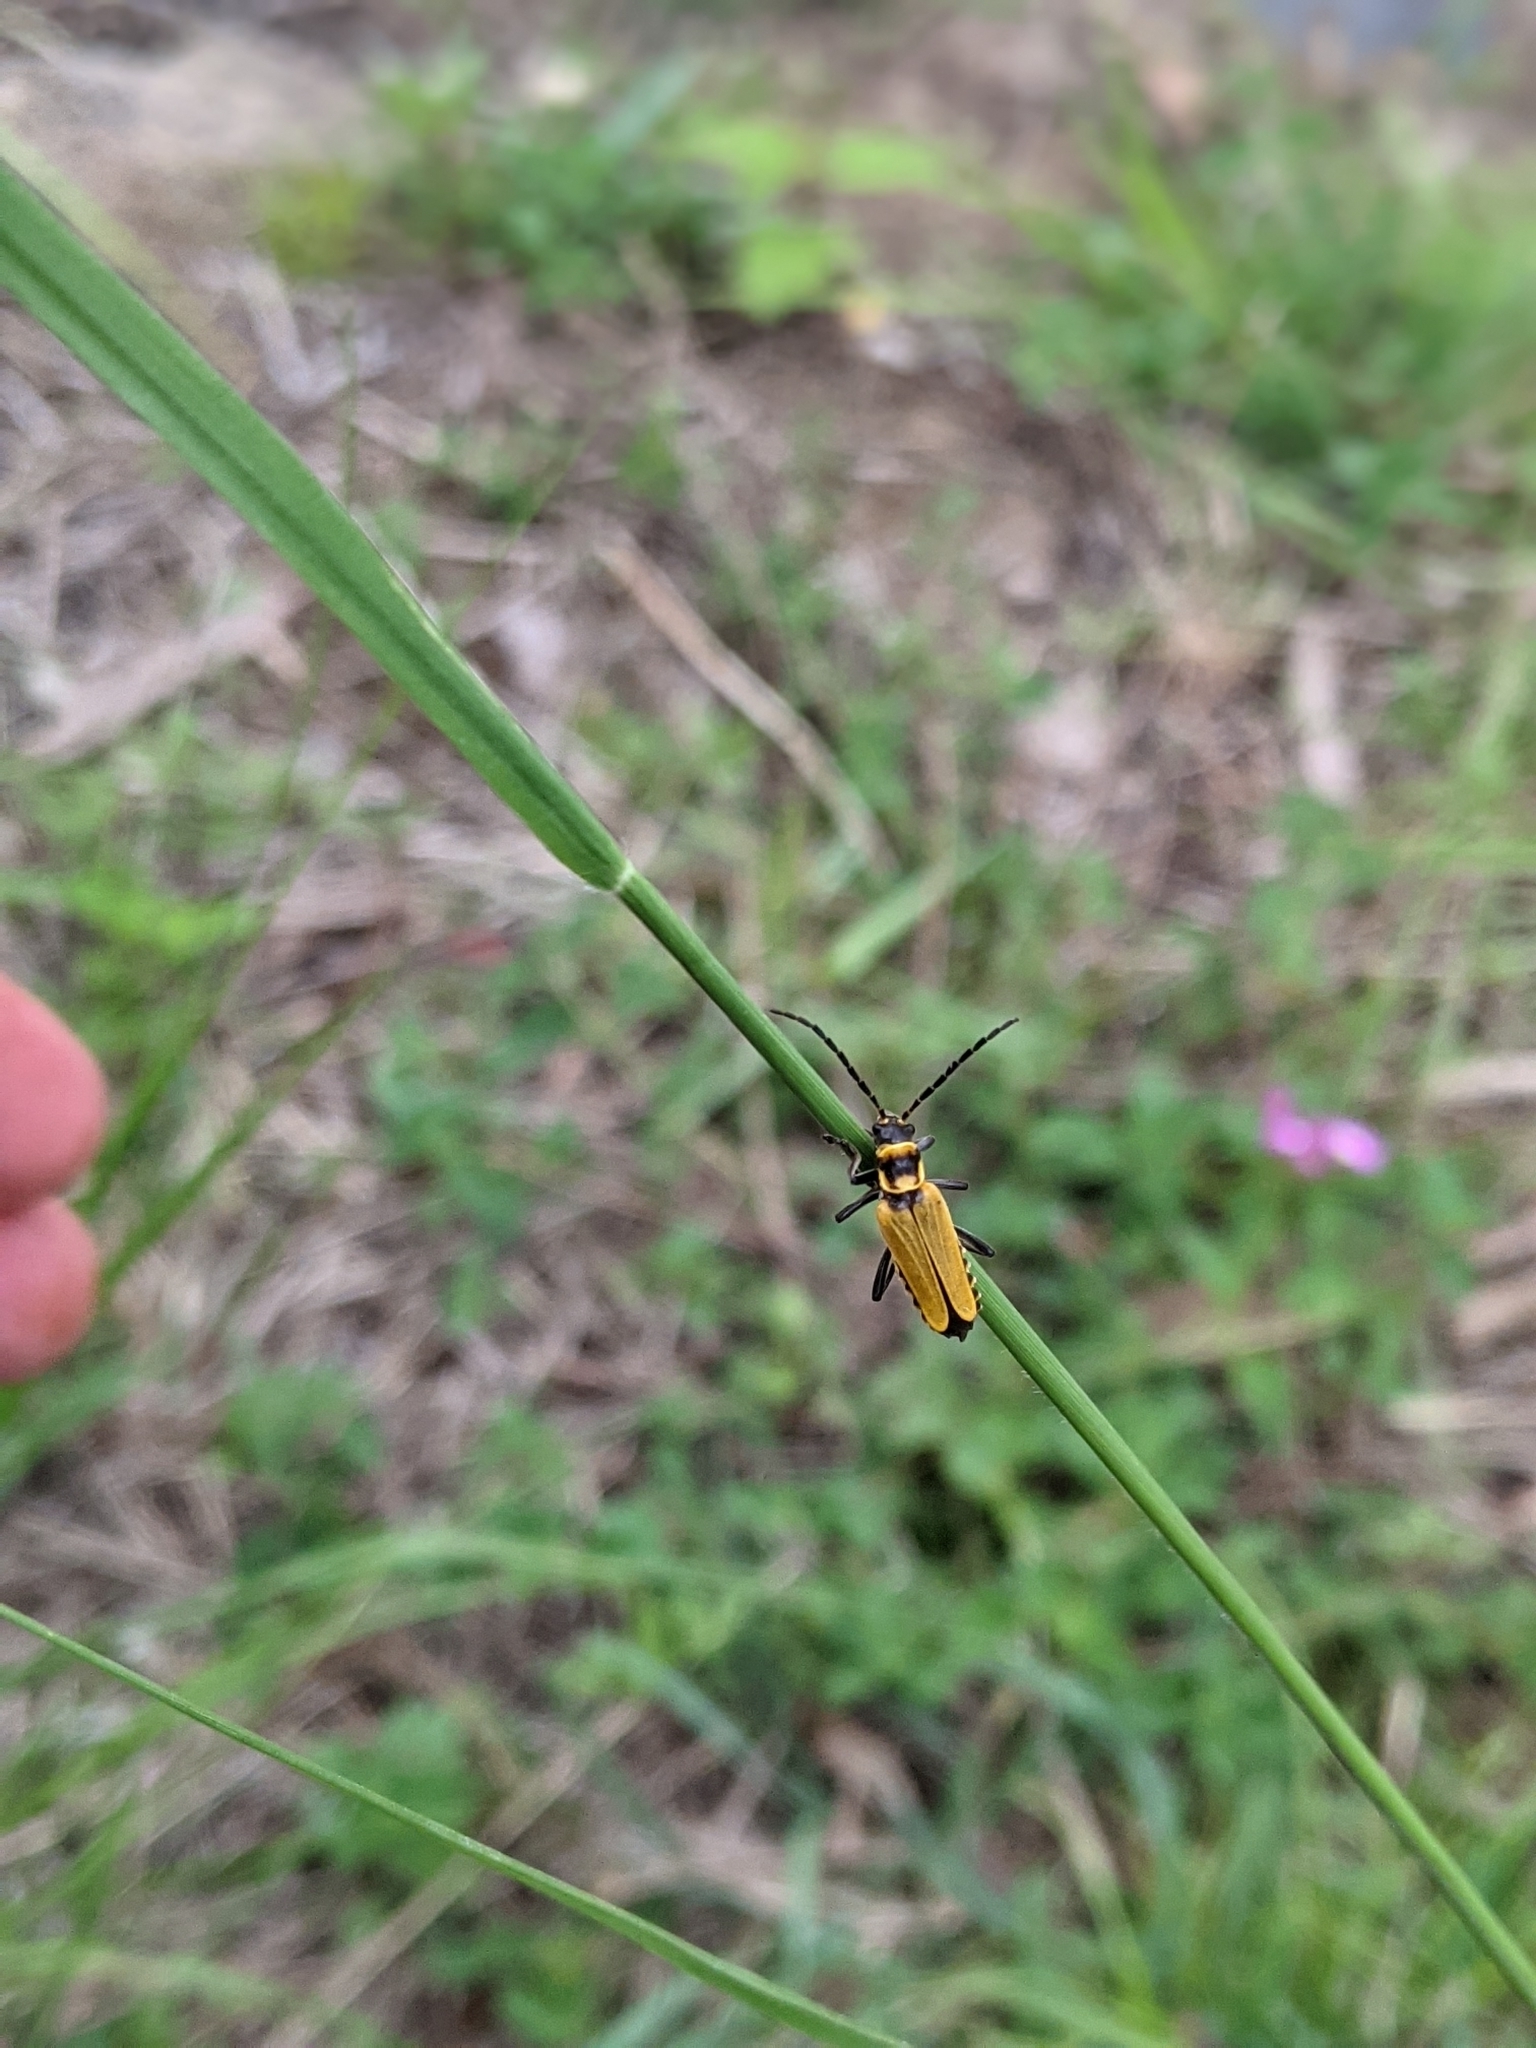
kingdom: Animalia
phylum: Arthropoda
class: Insecta
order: Coleoptera
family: Cantharidae
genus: Chauliognathus
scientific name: Chauliognathus
